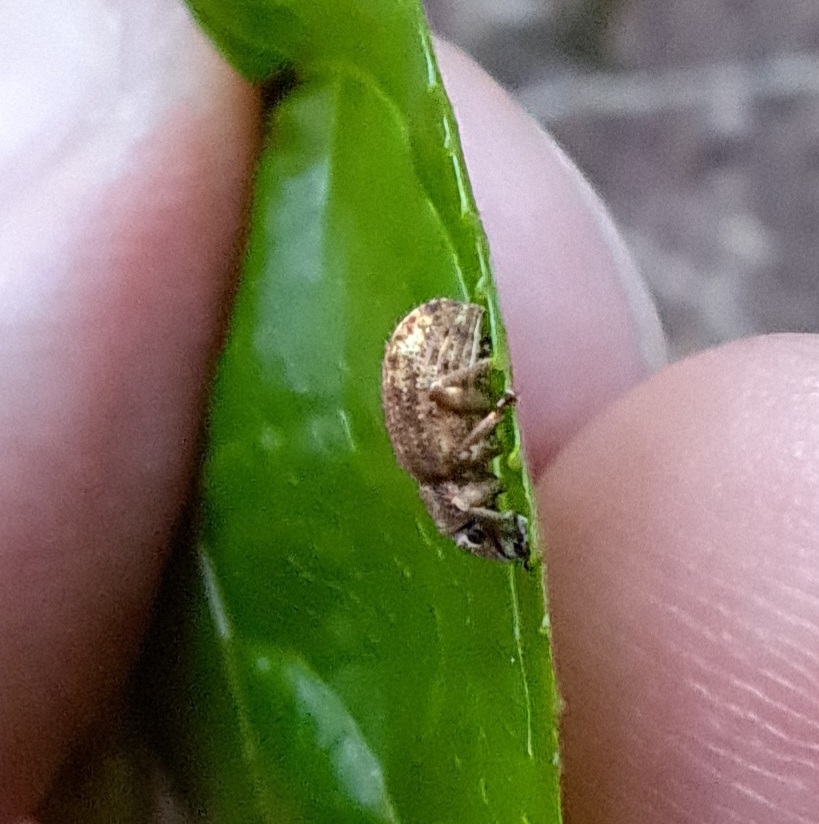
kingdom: Animalia
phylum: Arthropoda
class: Insecta
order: Coleoptera
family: Curculionidae
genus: Strophosoma
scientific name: Strophosoma melanogrammum
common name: Weevil
